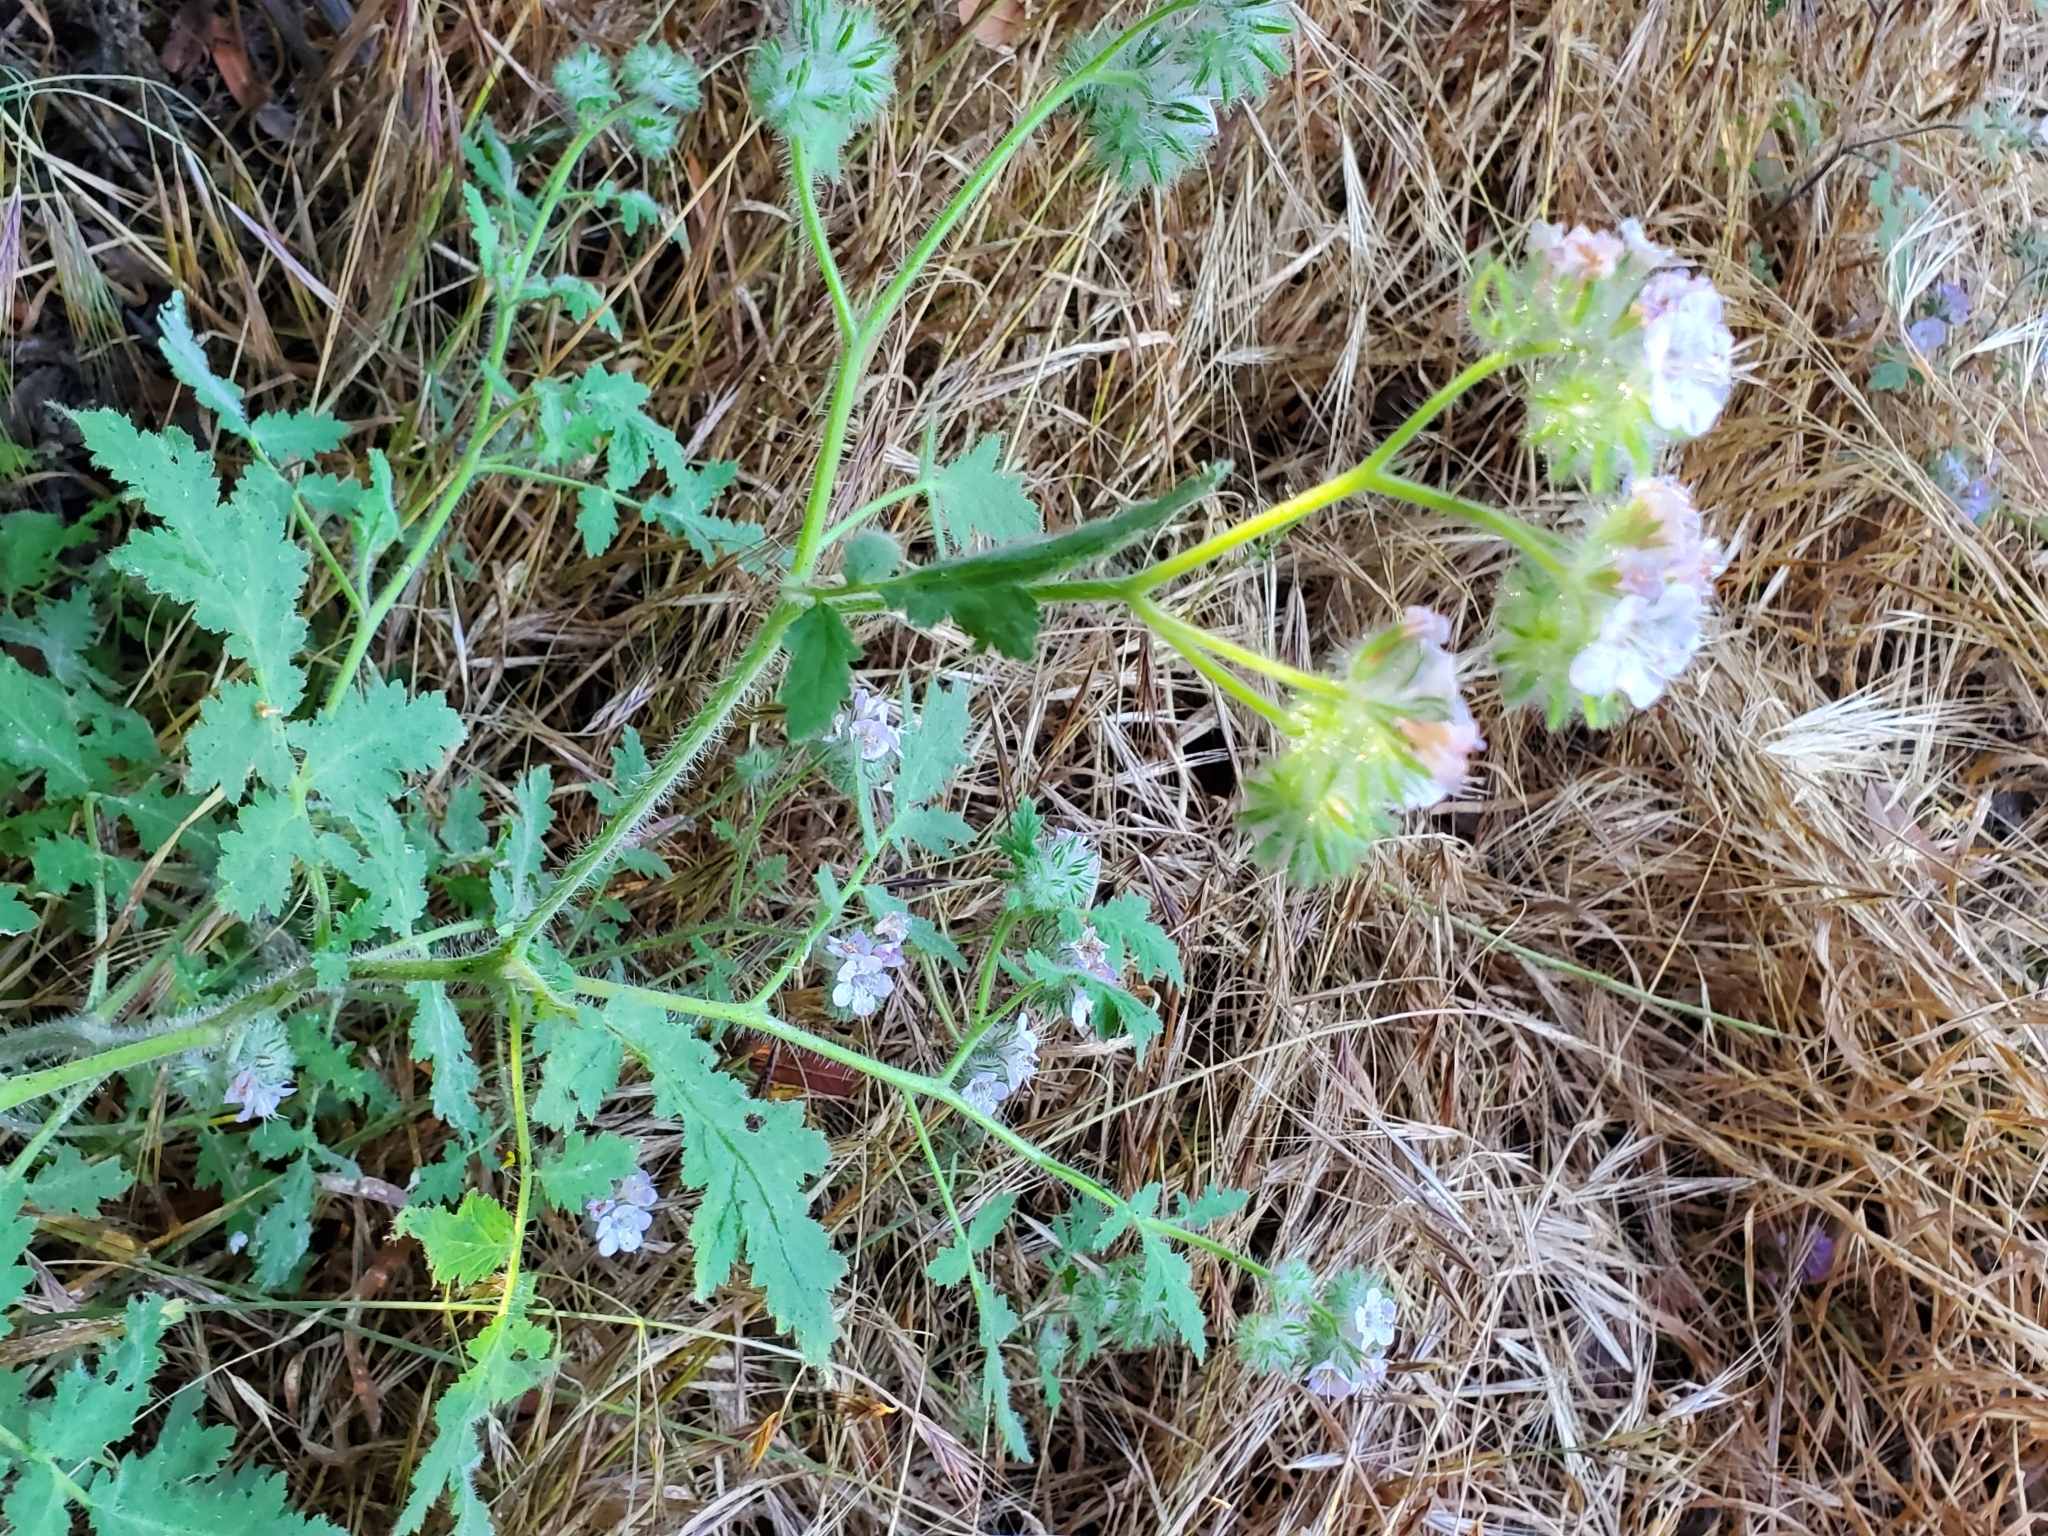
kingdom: Plantae
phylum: Tracheophyta
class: Magnoliopsida
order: Boraginales
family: Hydrophyllaceae
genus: Phacelia
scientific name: Phacelia cicutaria
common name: Caterpillar phacelia
